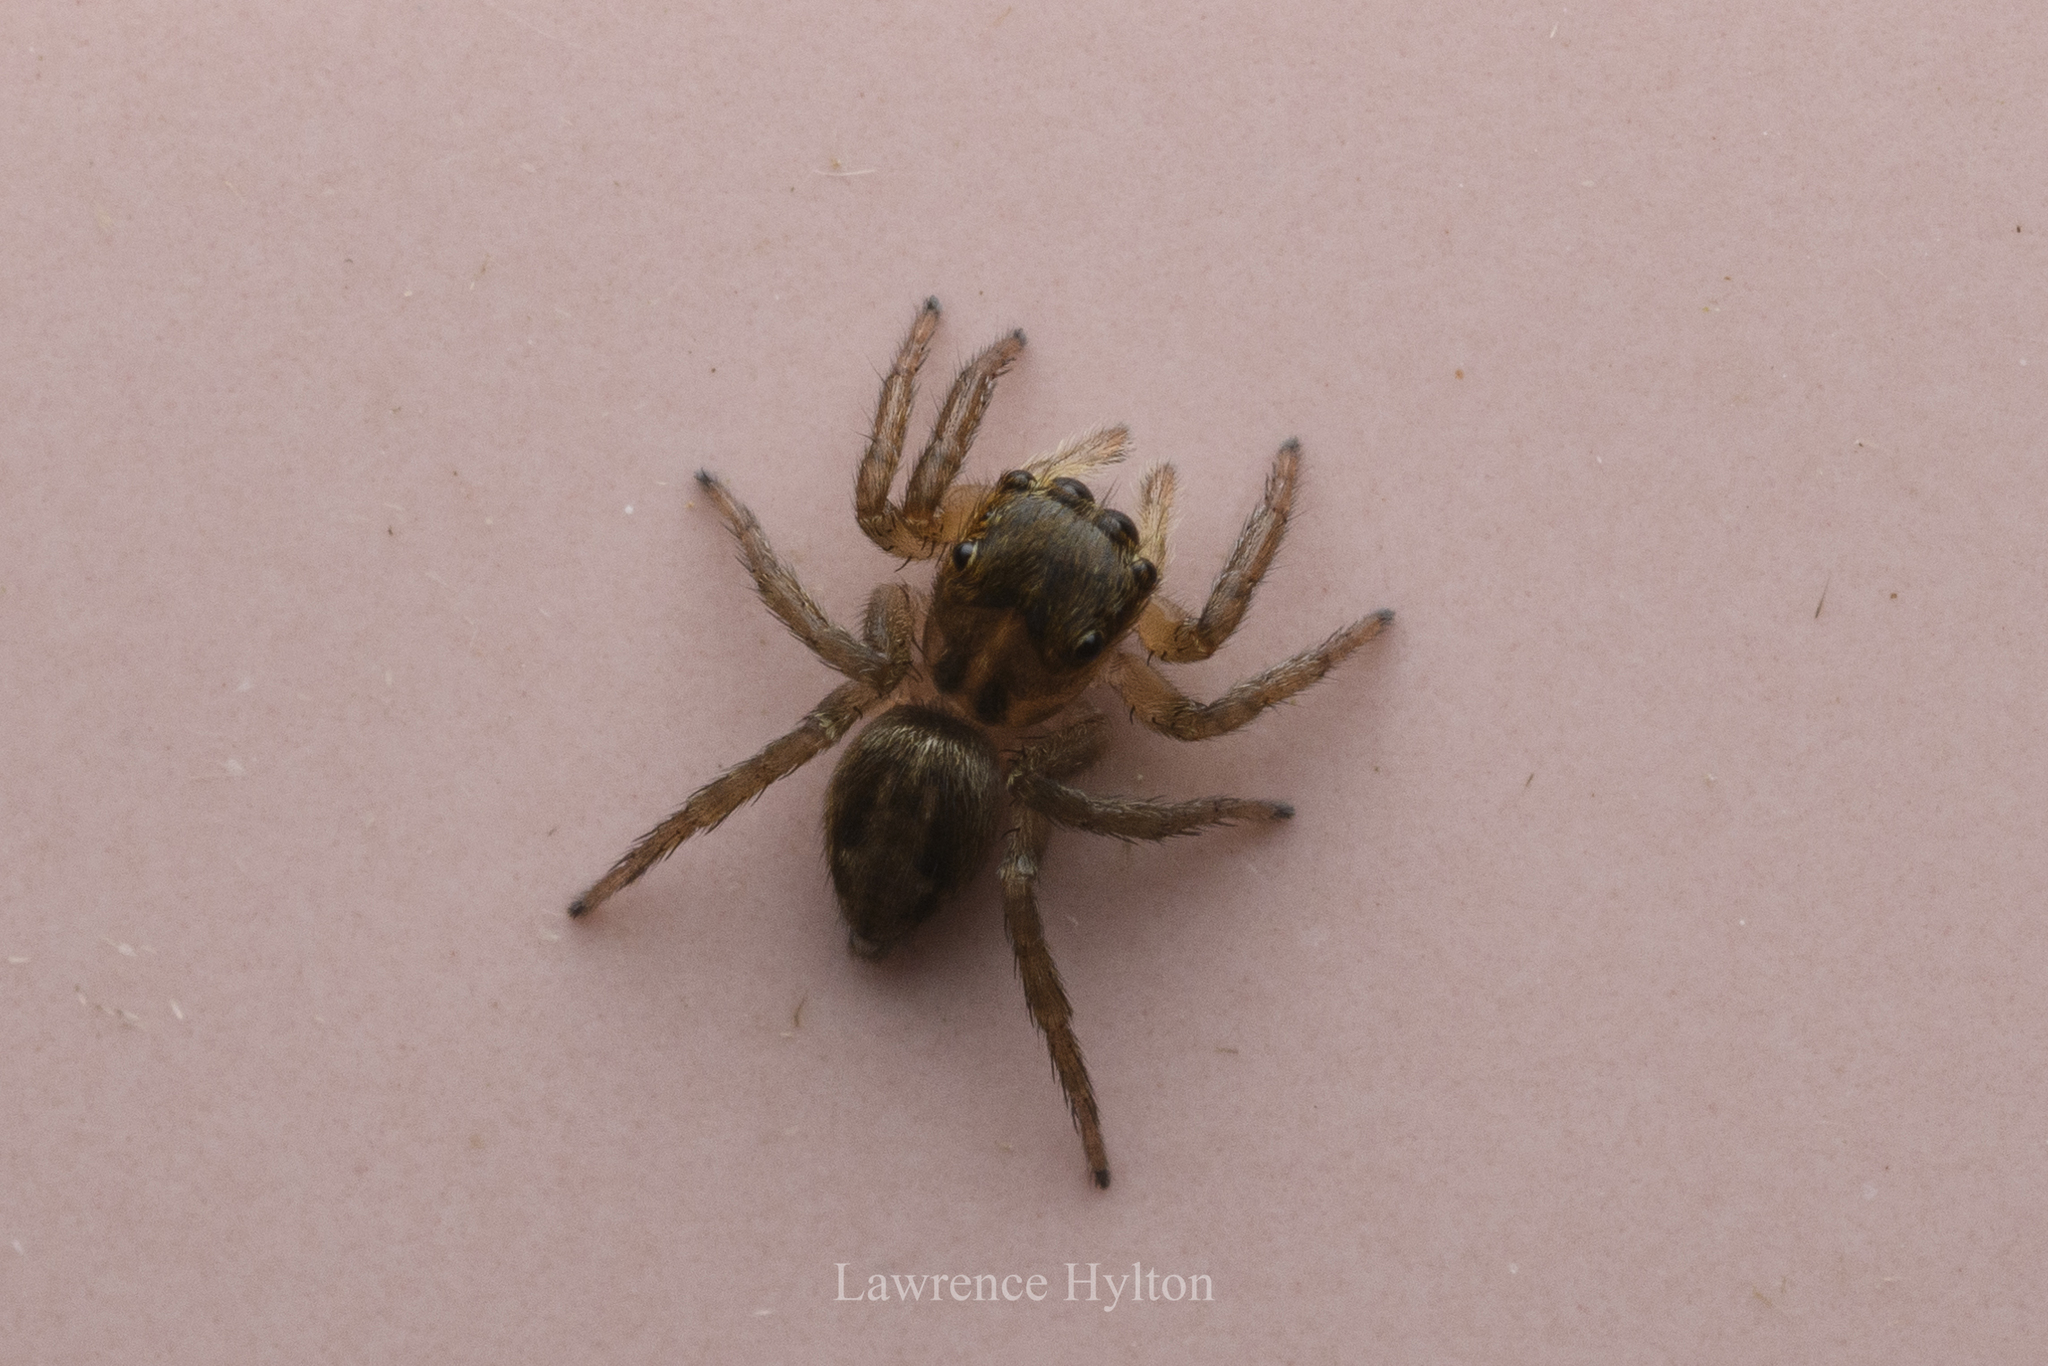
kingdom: Animalia
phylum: Arthropoda
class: Arachnida
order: Araneae
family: Salticidae
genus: Hasarius
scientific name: Hasarius adansoni
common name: Jumping spider
